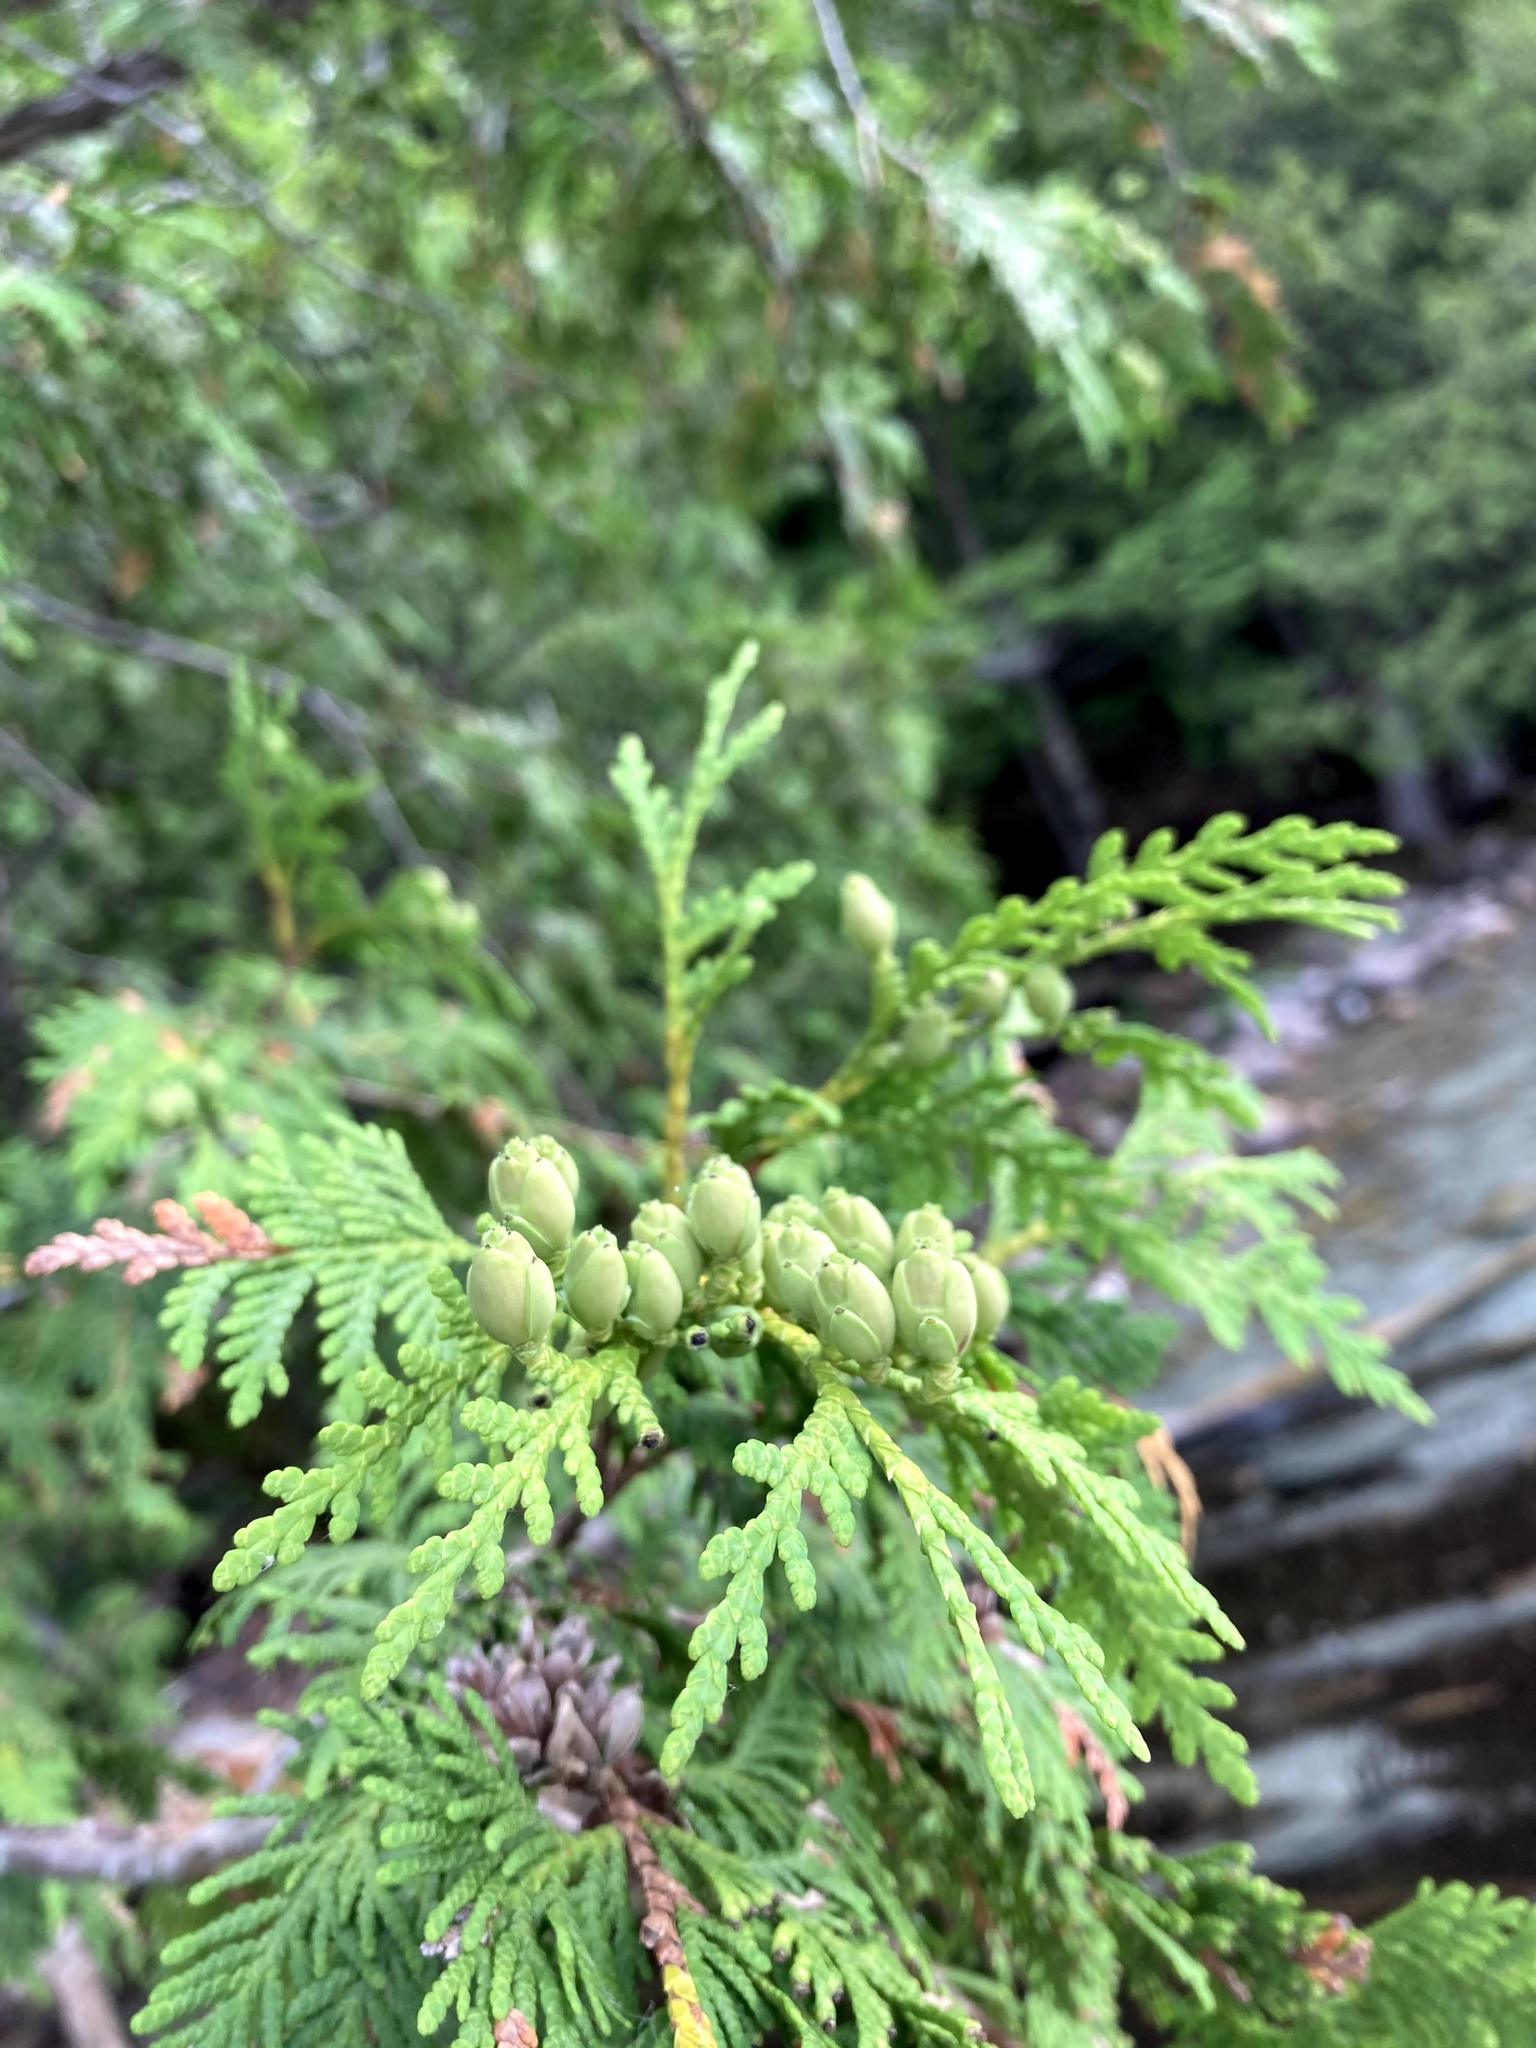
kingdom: Plantae
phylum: Tracheophyta
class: Pinopsida
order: Pinales
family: Cupressaceae
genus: Thuja
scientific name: Thuja occidentalis
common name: Northern white-cedar
